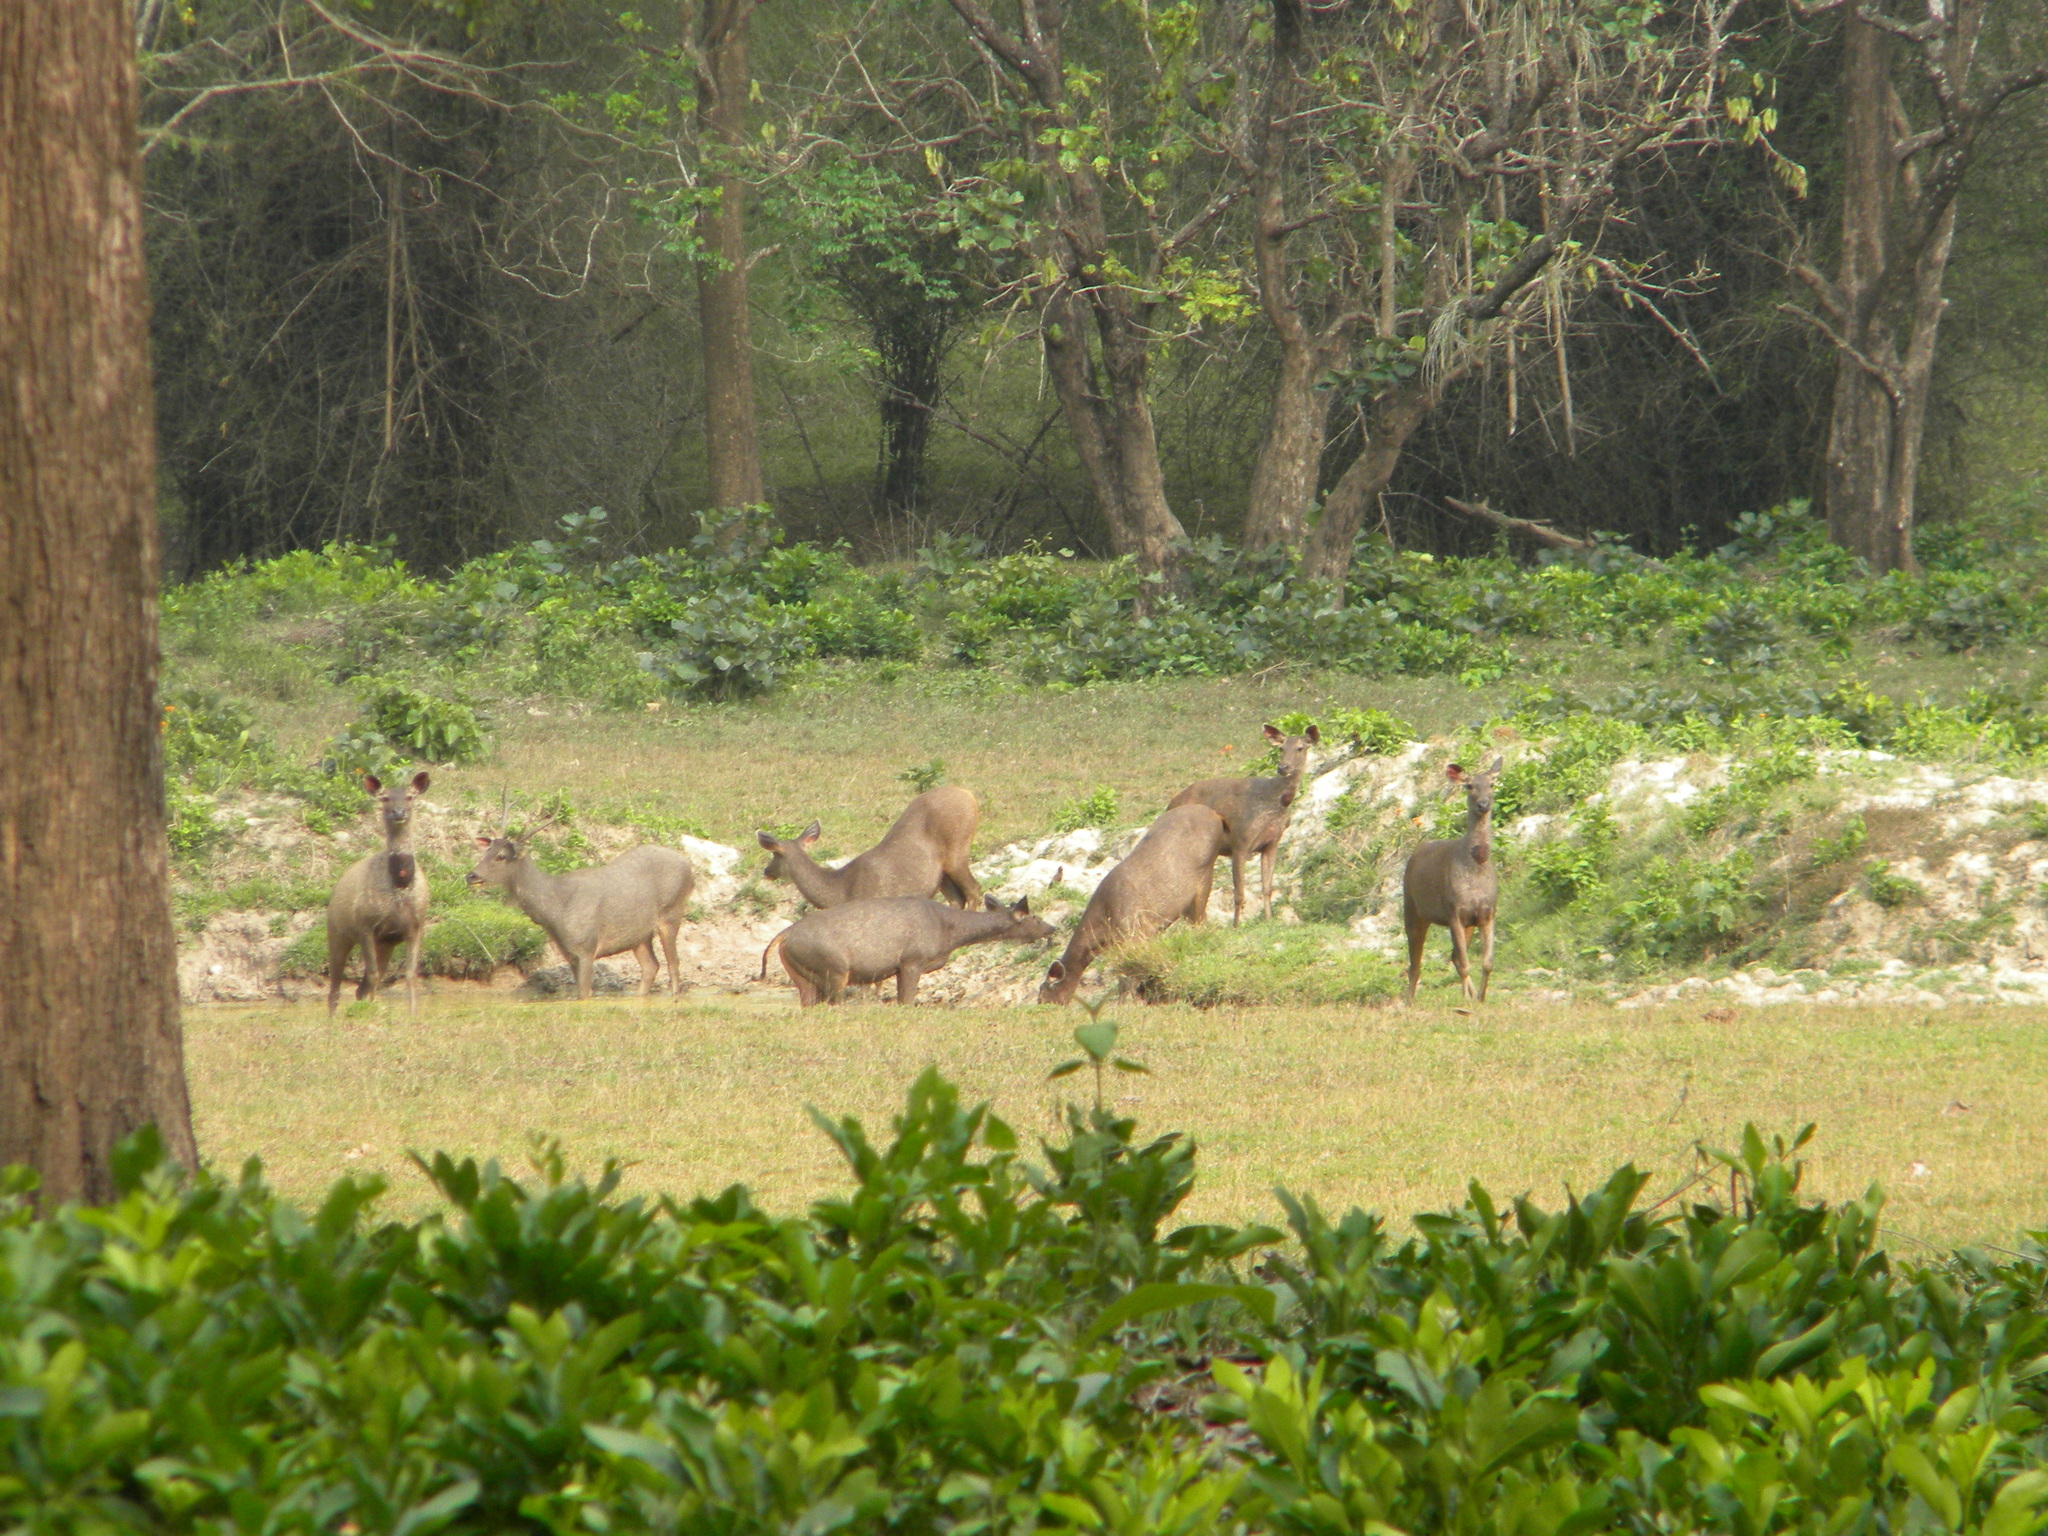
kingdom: Animalia
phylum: Chordata
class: Mammalia
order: Artiodactyla
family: Cervidae
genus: Rusa
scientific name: Rusa unicolor
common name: Sambar
